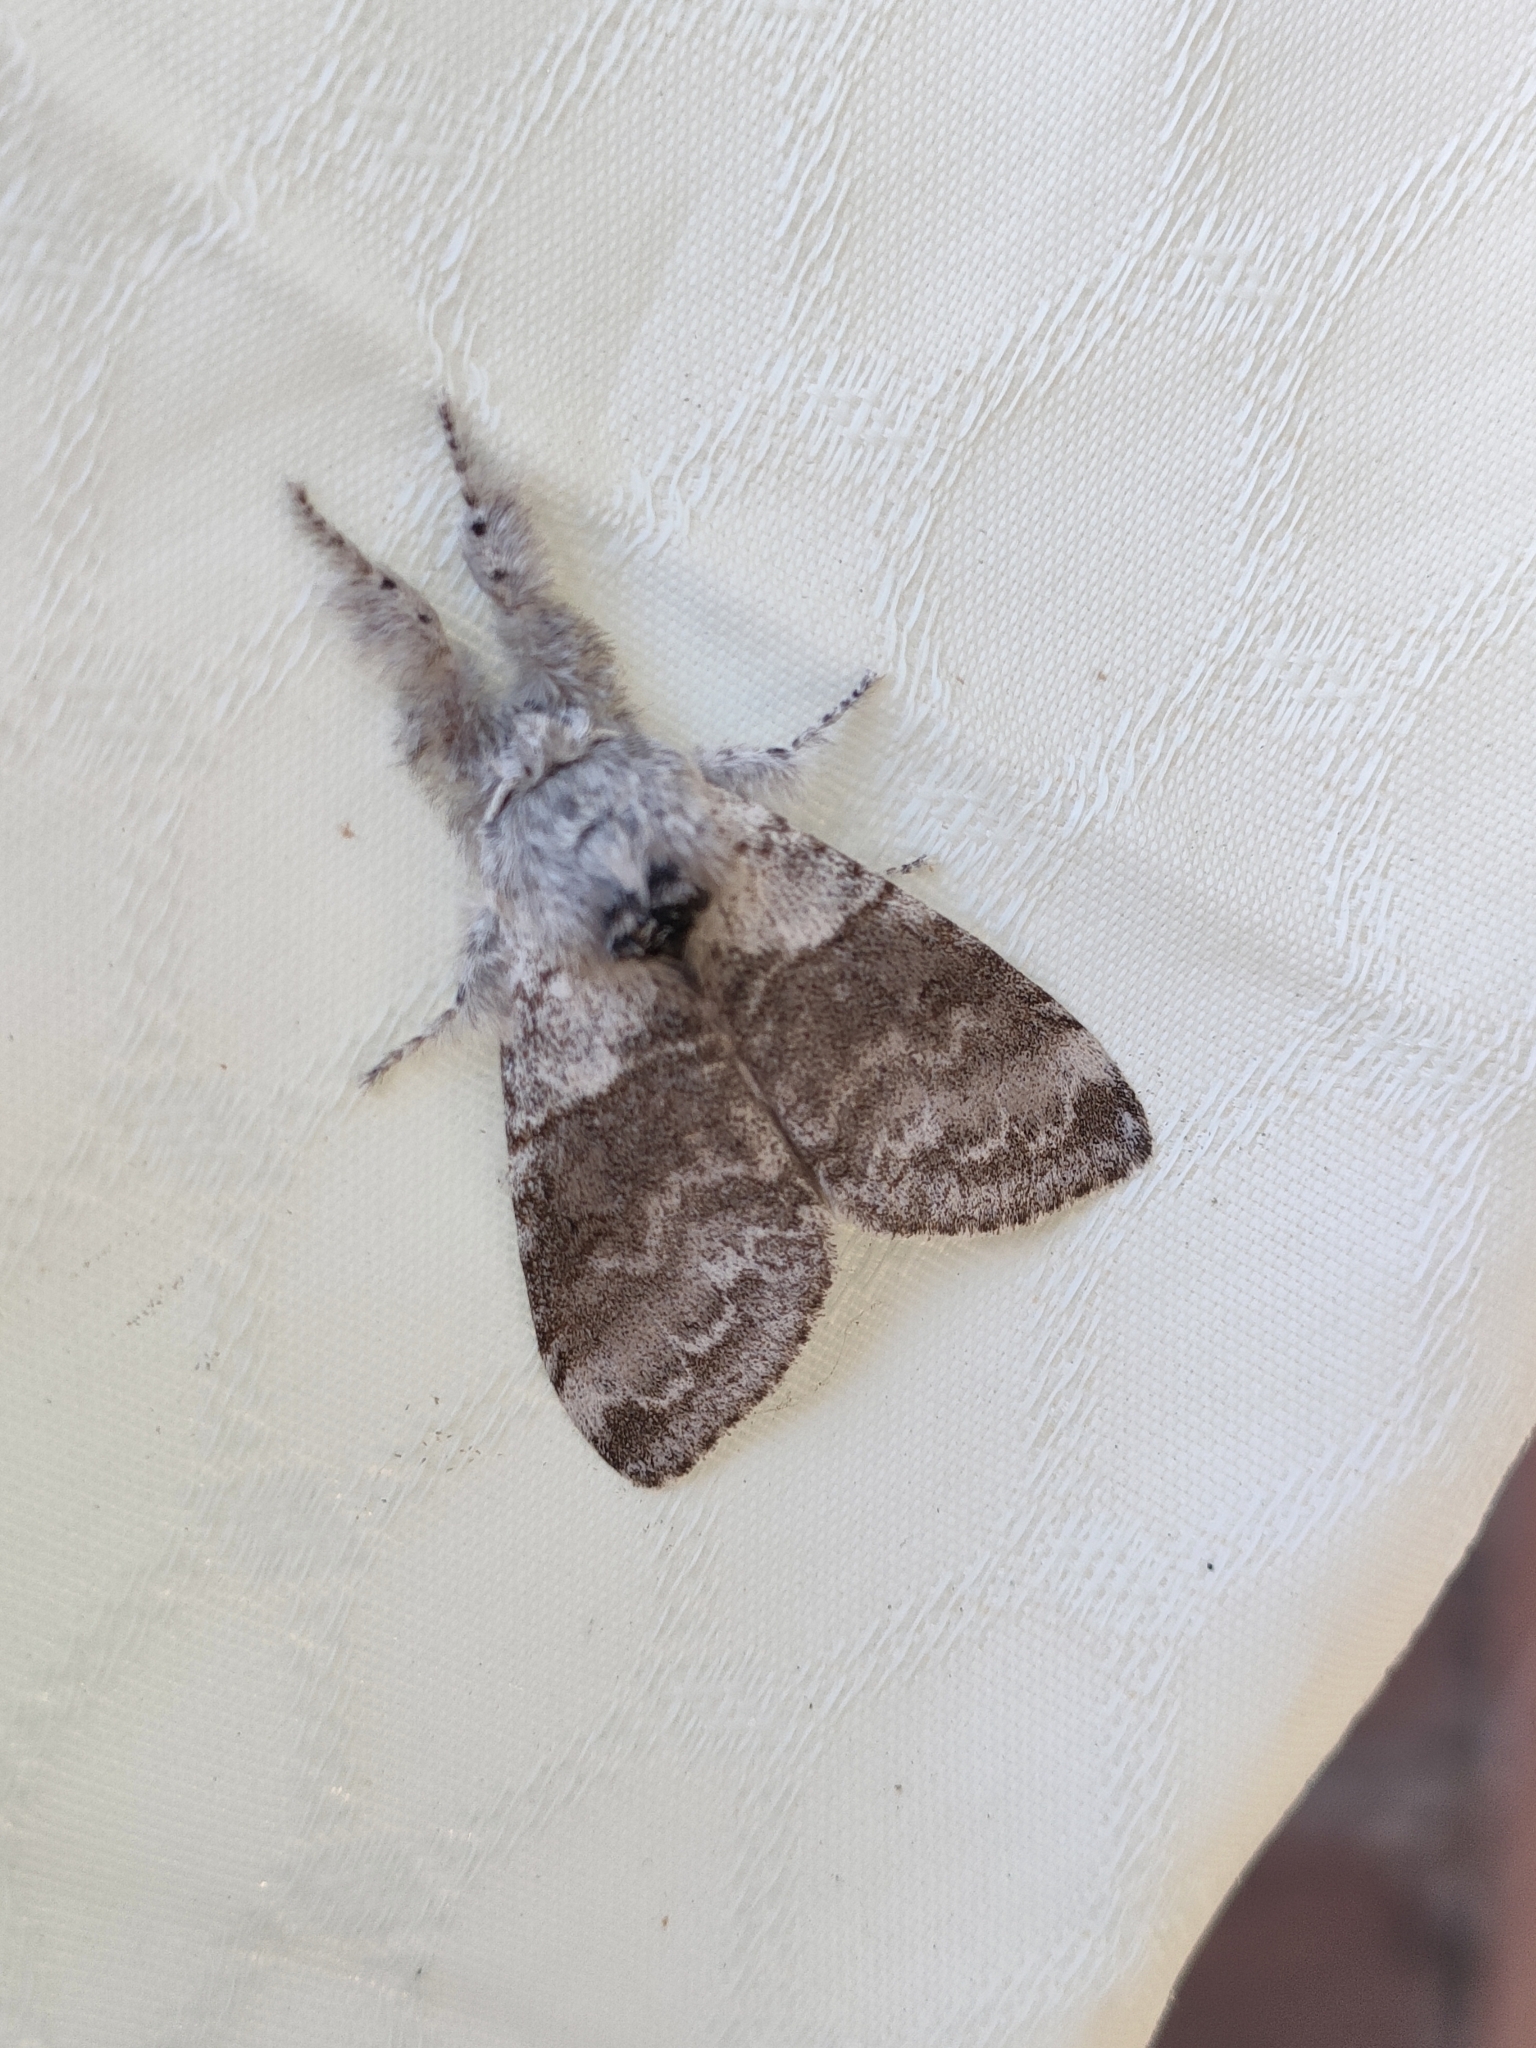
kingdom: Animalia
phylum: Arthropoda
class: Insecta
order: Lepidoptera
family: Erebidae
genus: Calliteara
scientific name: Calliteara pudibunda
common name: Pale tussock
